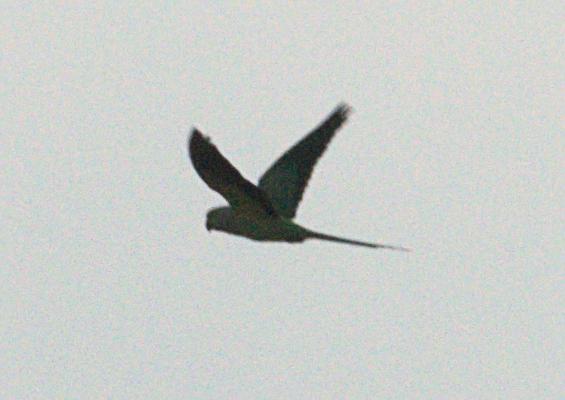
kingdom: Animalia
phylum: Chordata
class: Aves
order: Psittaciformes
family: Psittacidae
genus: Psittacula
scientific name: Psittacula krameri
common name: Rose-ringed parakeet
